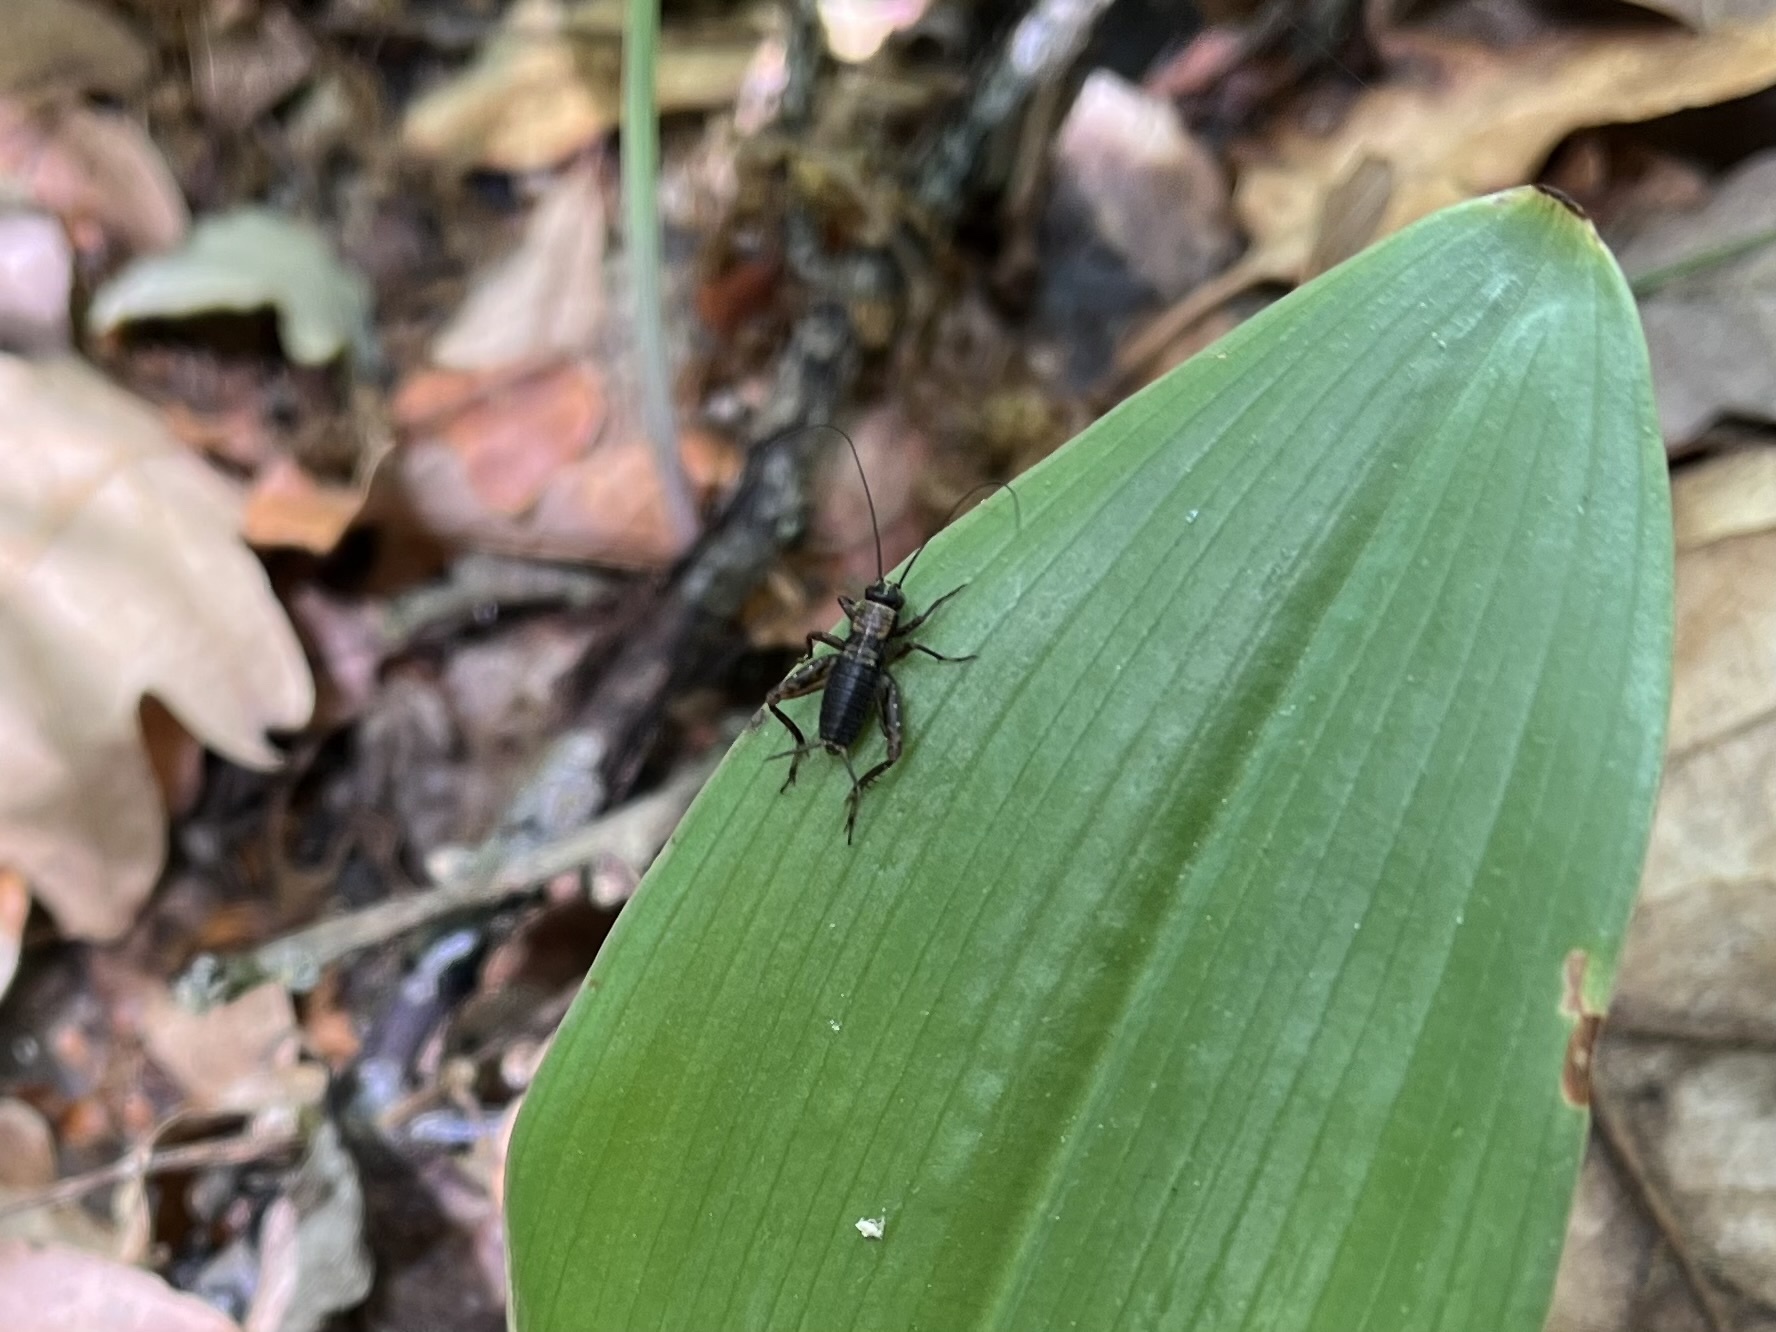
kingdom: Animalia
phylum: Arthropoda
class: Insecta
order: Orthoptera
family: Trigonidiidae
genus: Nemobius
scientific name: Nemobius sylvestris
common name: Wood-cricket
